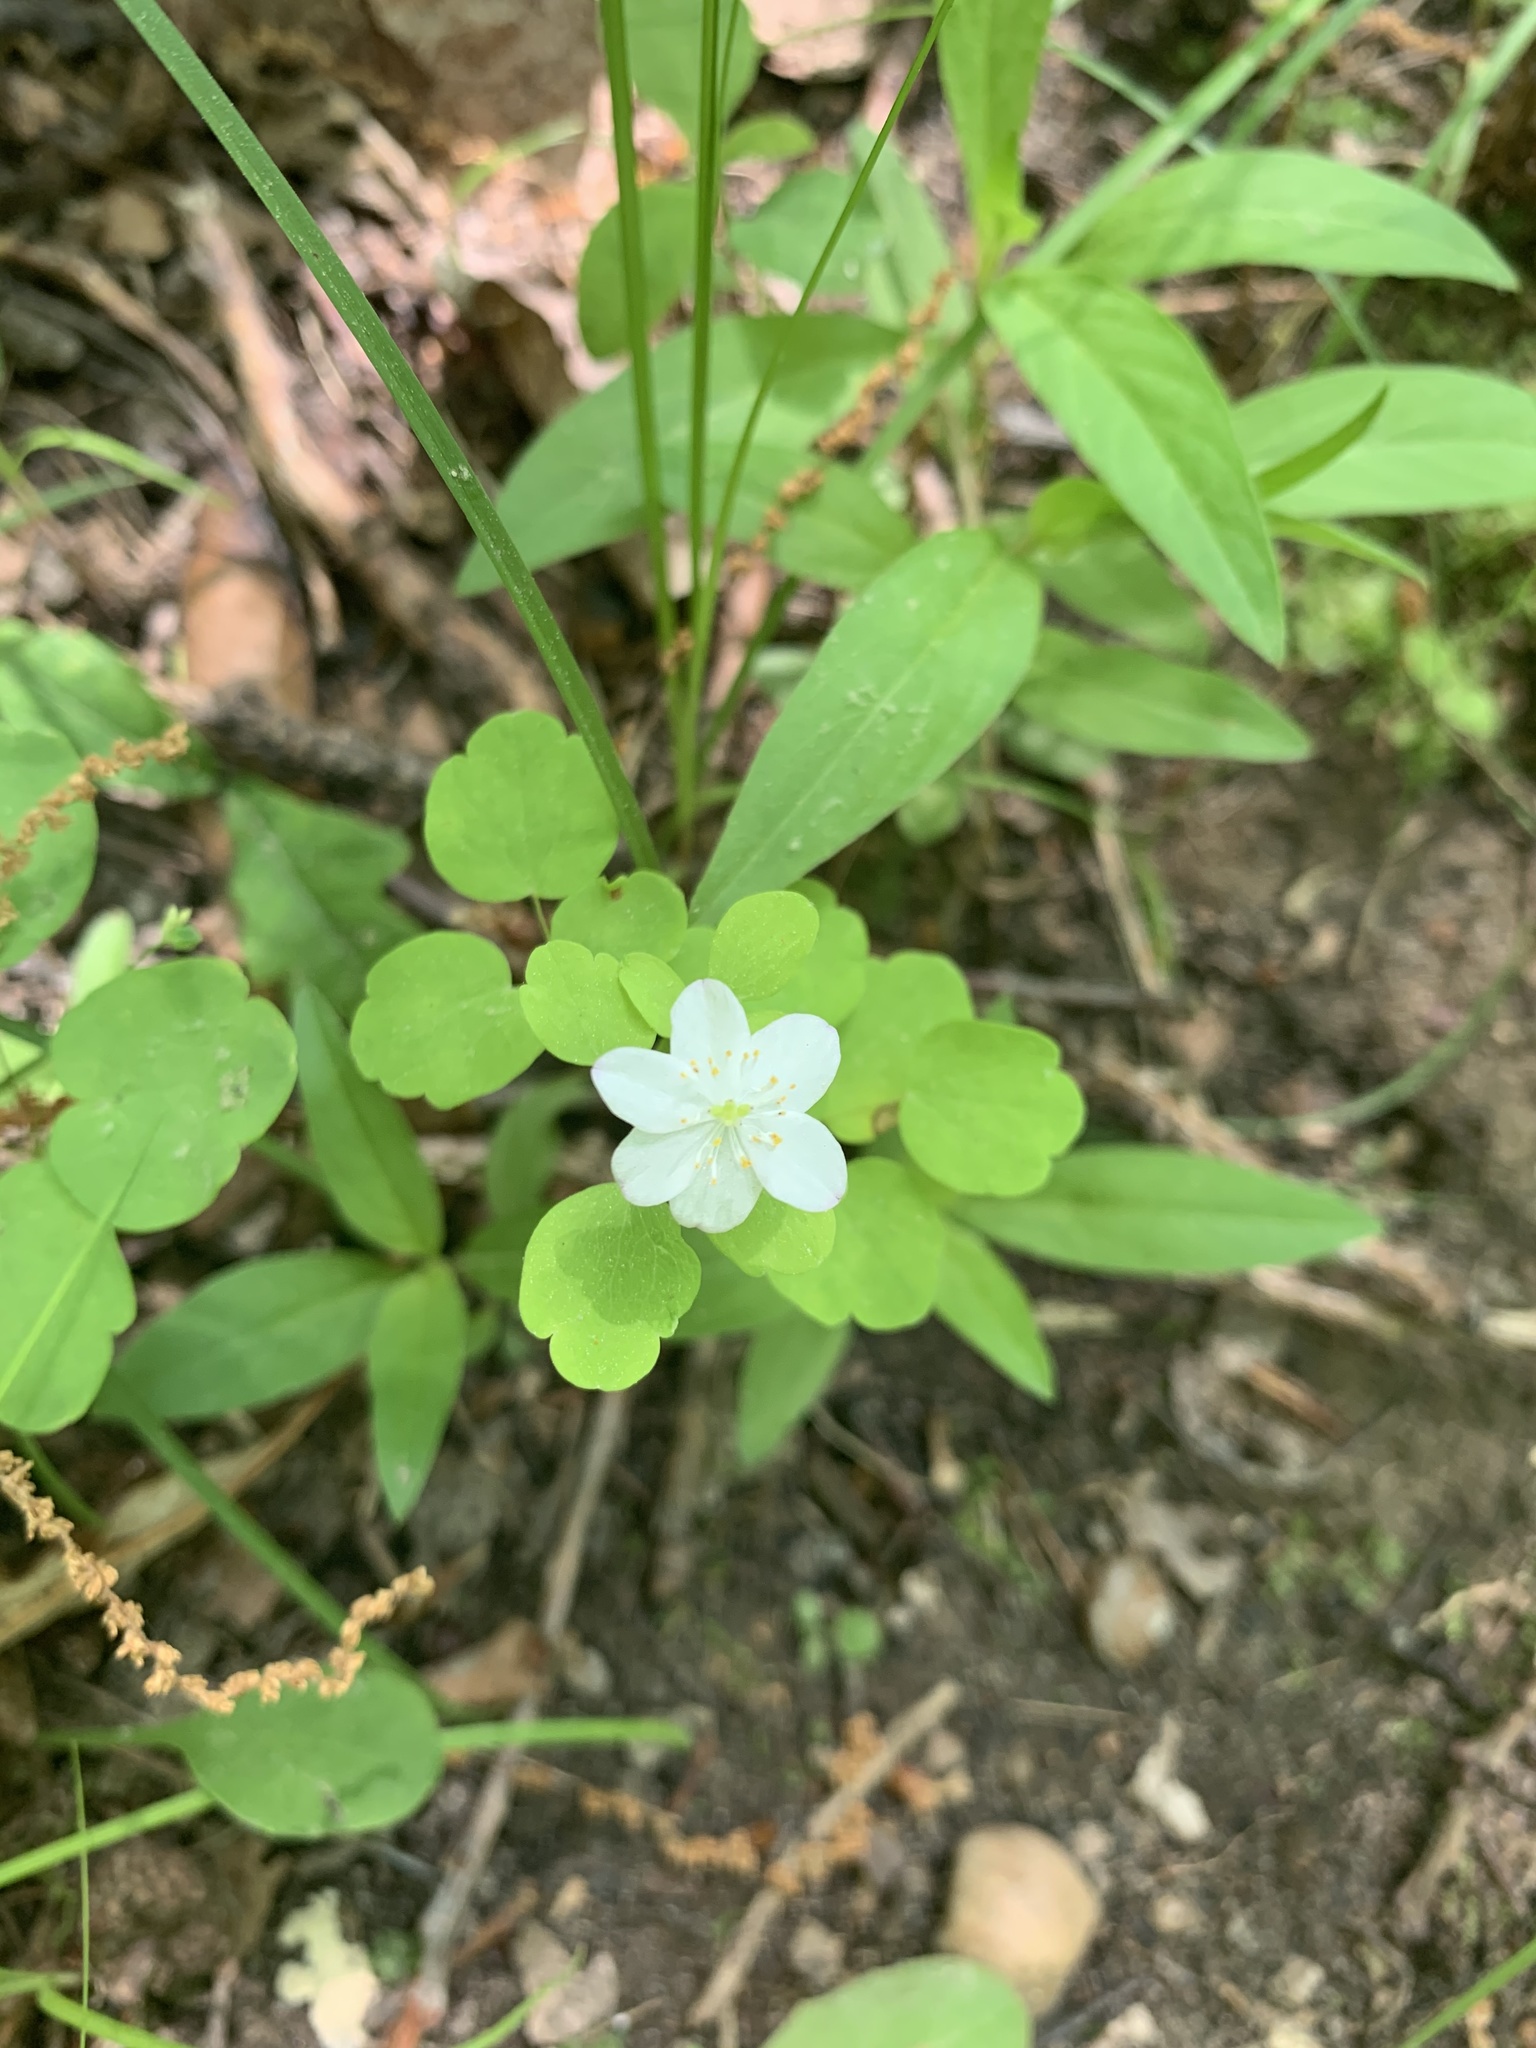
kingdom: Plantae
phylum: Tracheophyta
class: Magnoliopsida
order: Ranunculales
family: Ranunculaceae
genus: Thalictrum
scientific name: Thalictrum thalictroides
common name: Rue-anemone
